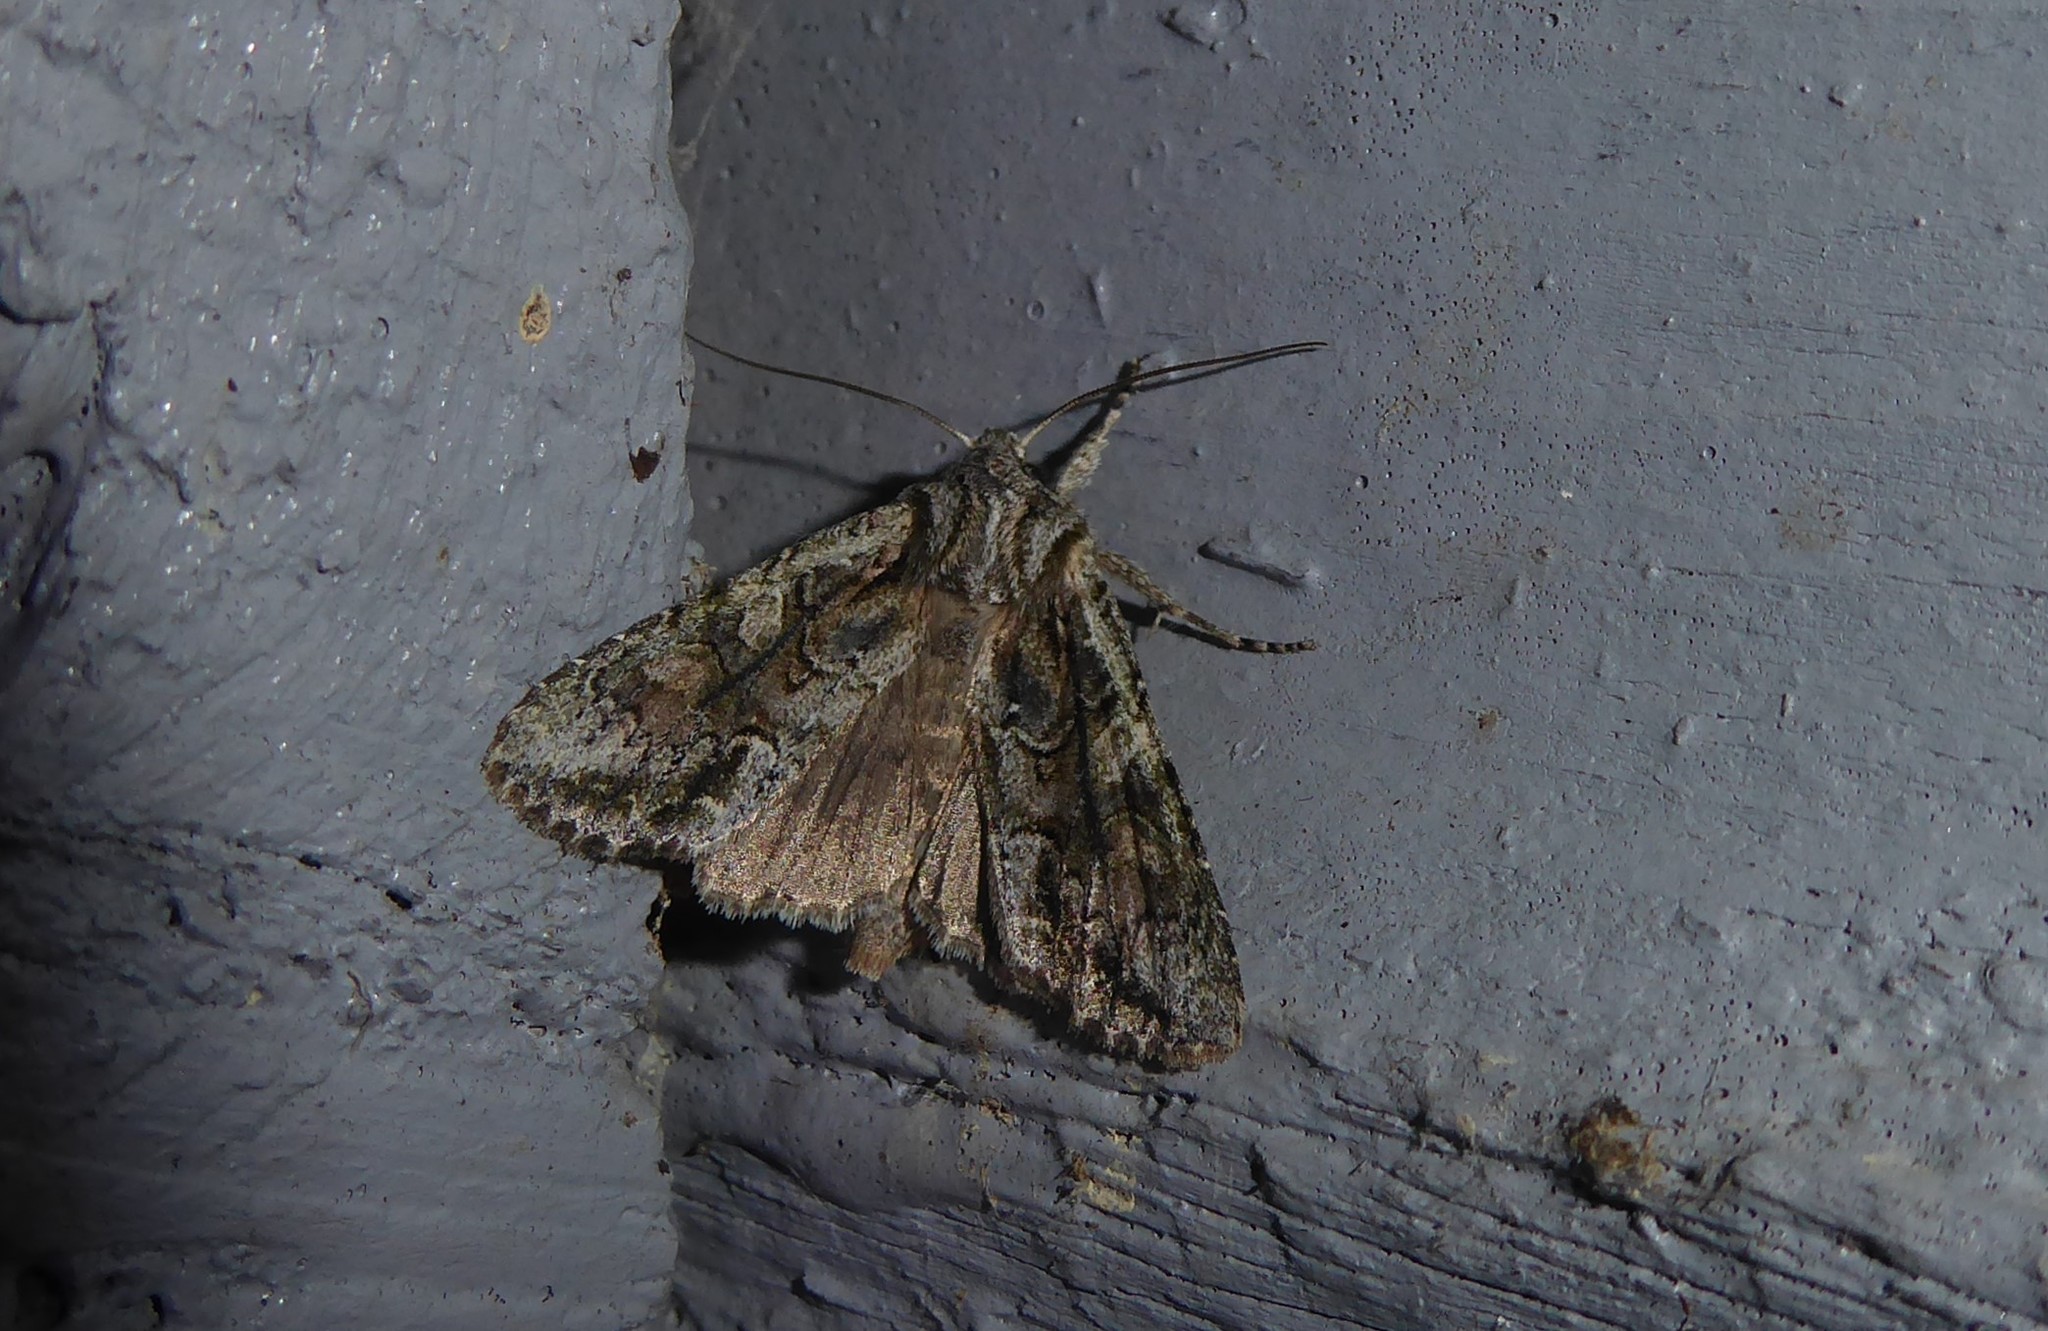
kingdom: Animalia
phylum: Arthropoda
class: Insecta
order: Lepidoptera
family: Noctuidae
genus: Ichneutica
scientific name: Ichneutica mutans
